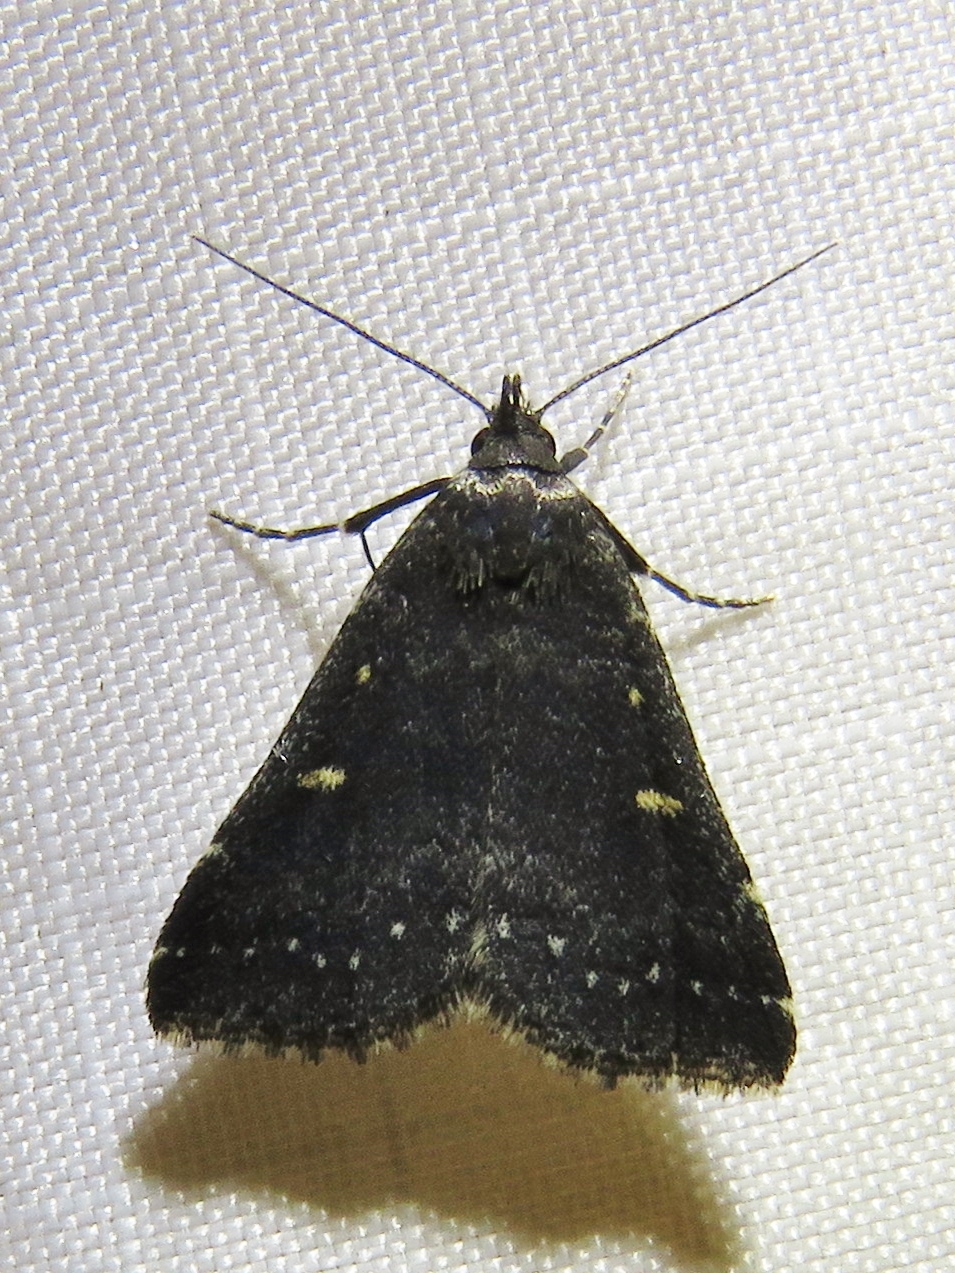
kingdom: Animalia
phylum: Arthropoda
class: Insecta
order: Lepidoptera
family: Erebidae
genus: Tetanolita
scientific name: Tetanolita mynesalis
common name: Smoky tetanolita moth
